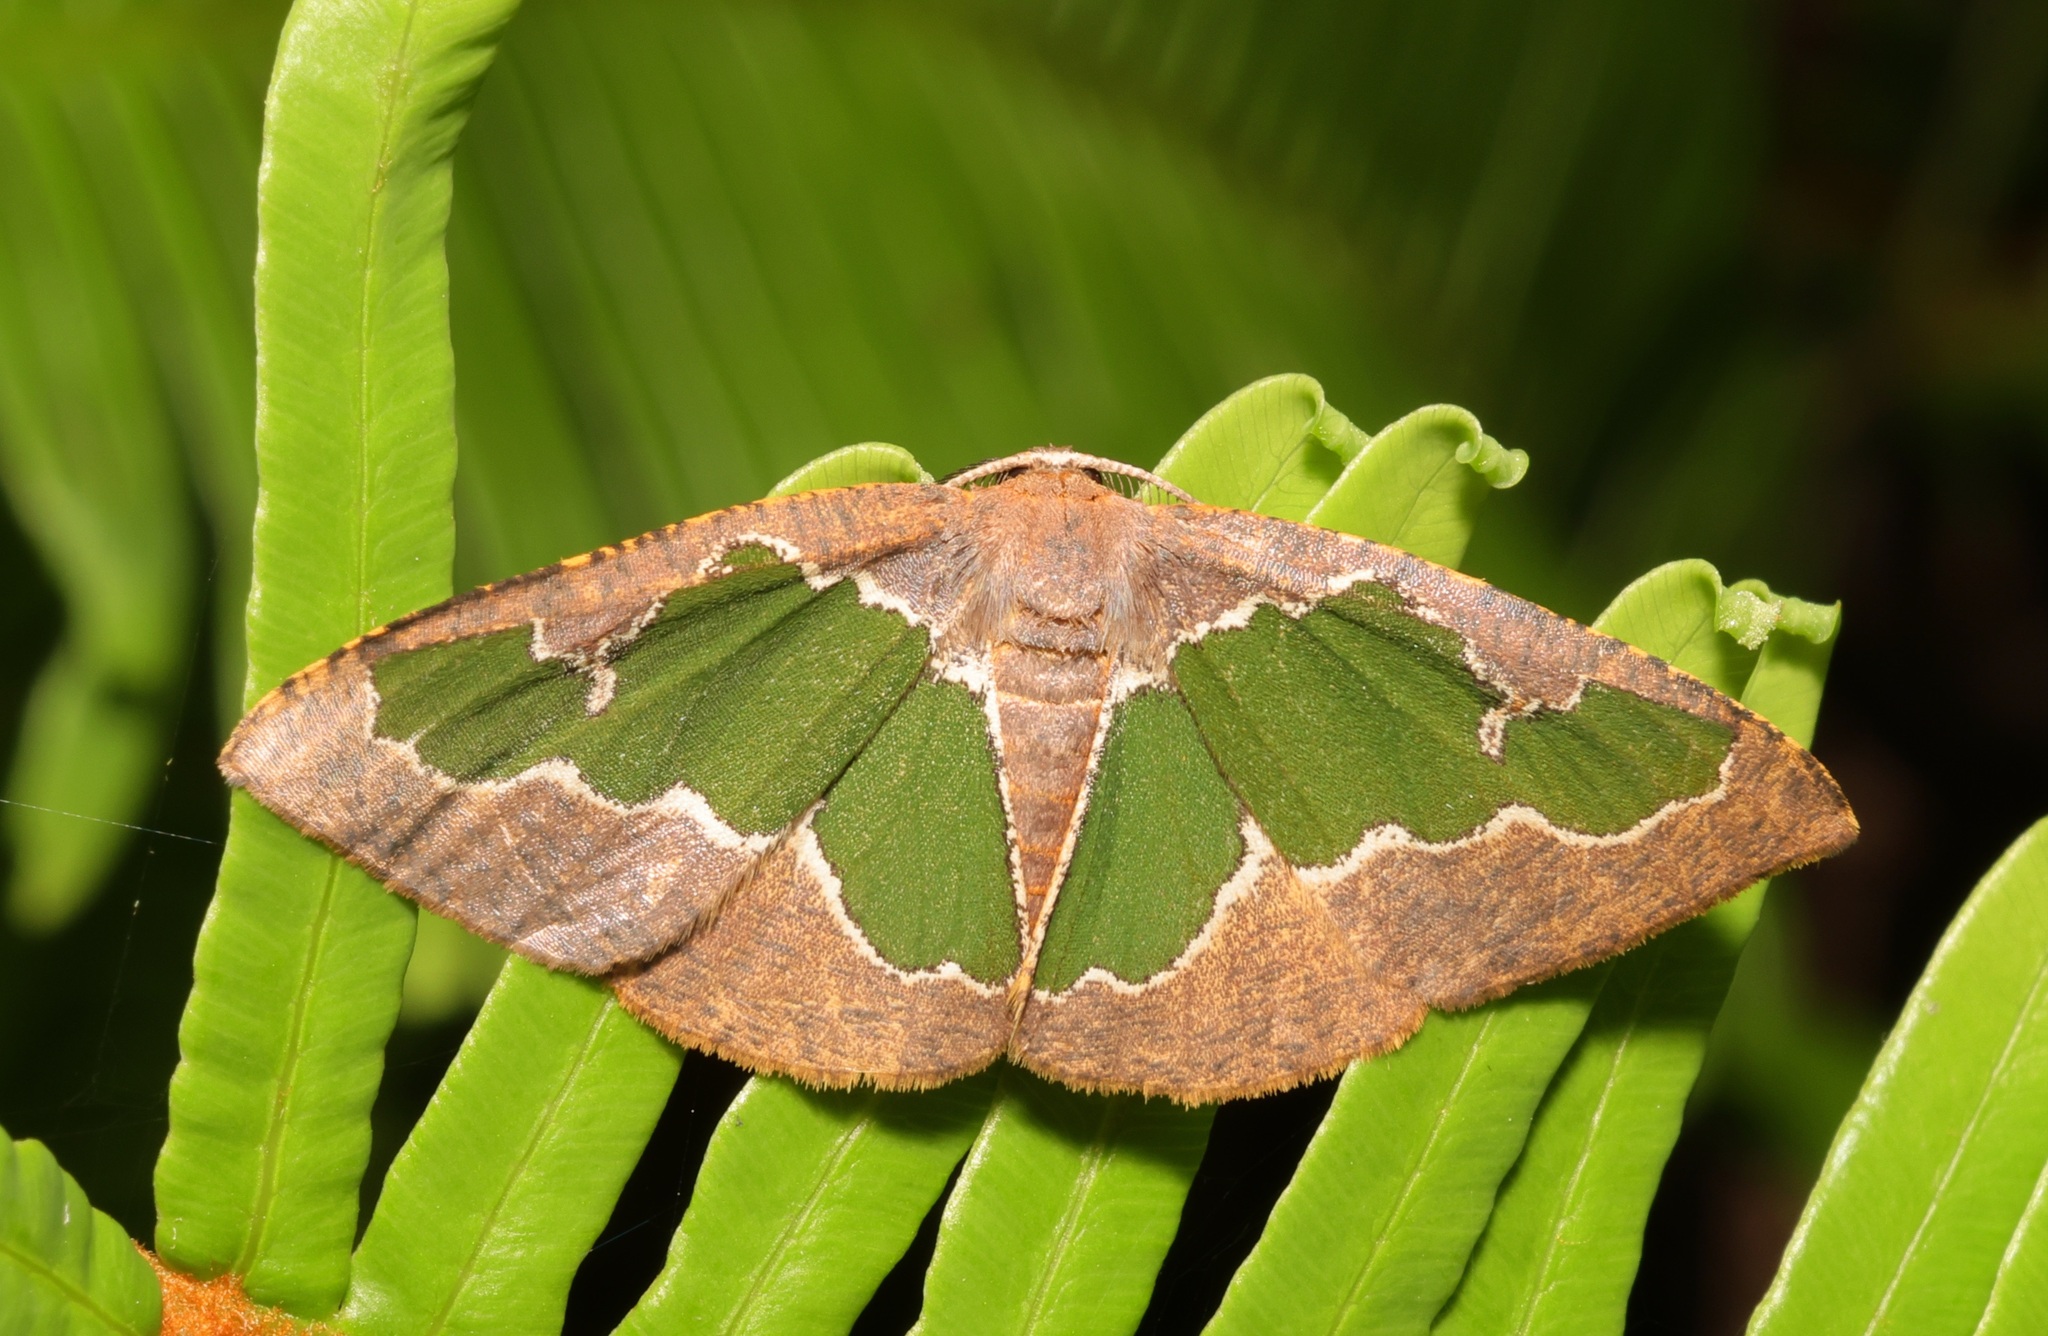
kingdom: Animalia
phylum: Arthropoda
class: Insecta
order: Lepidoptera
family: Geometridae
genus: Celenna
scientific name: Celenna festivaria
